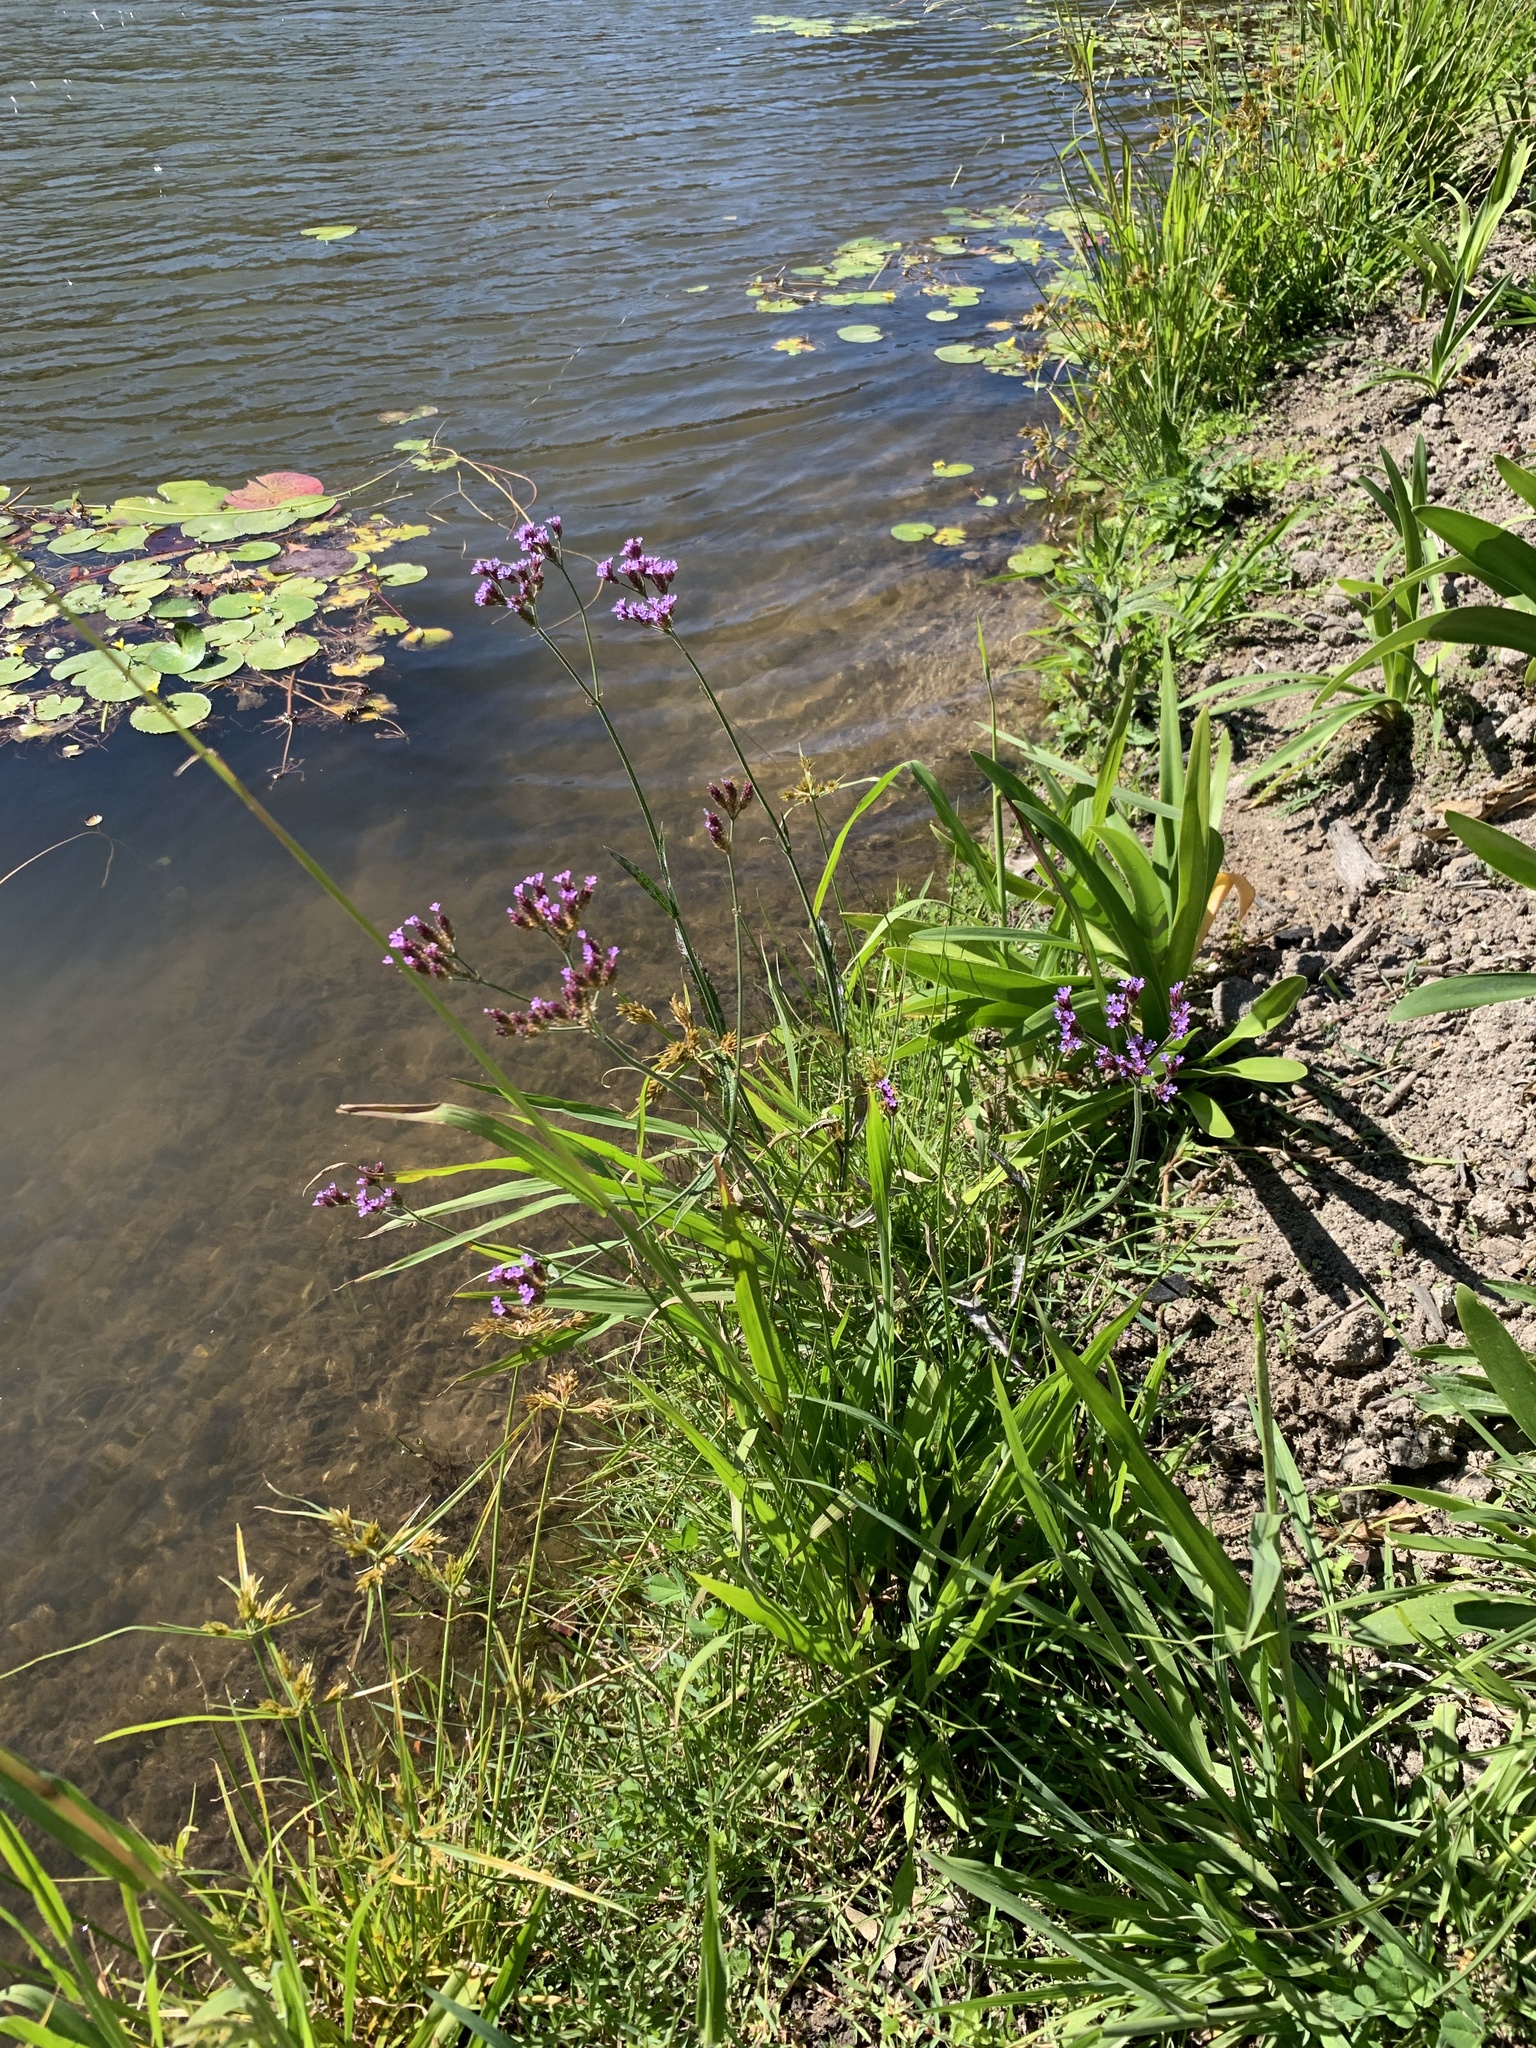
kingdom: Plantae
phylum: Tracheophyta
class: Magnoliopsida
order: Lamiales
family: Verbenaceae
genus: Verbena
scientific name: Verbena bonariensis
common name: Purpletop vervain
